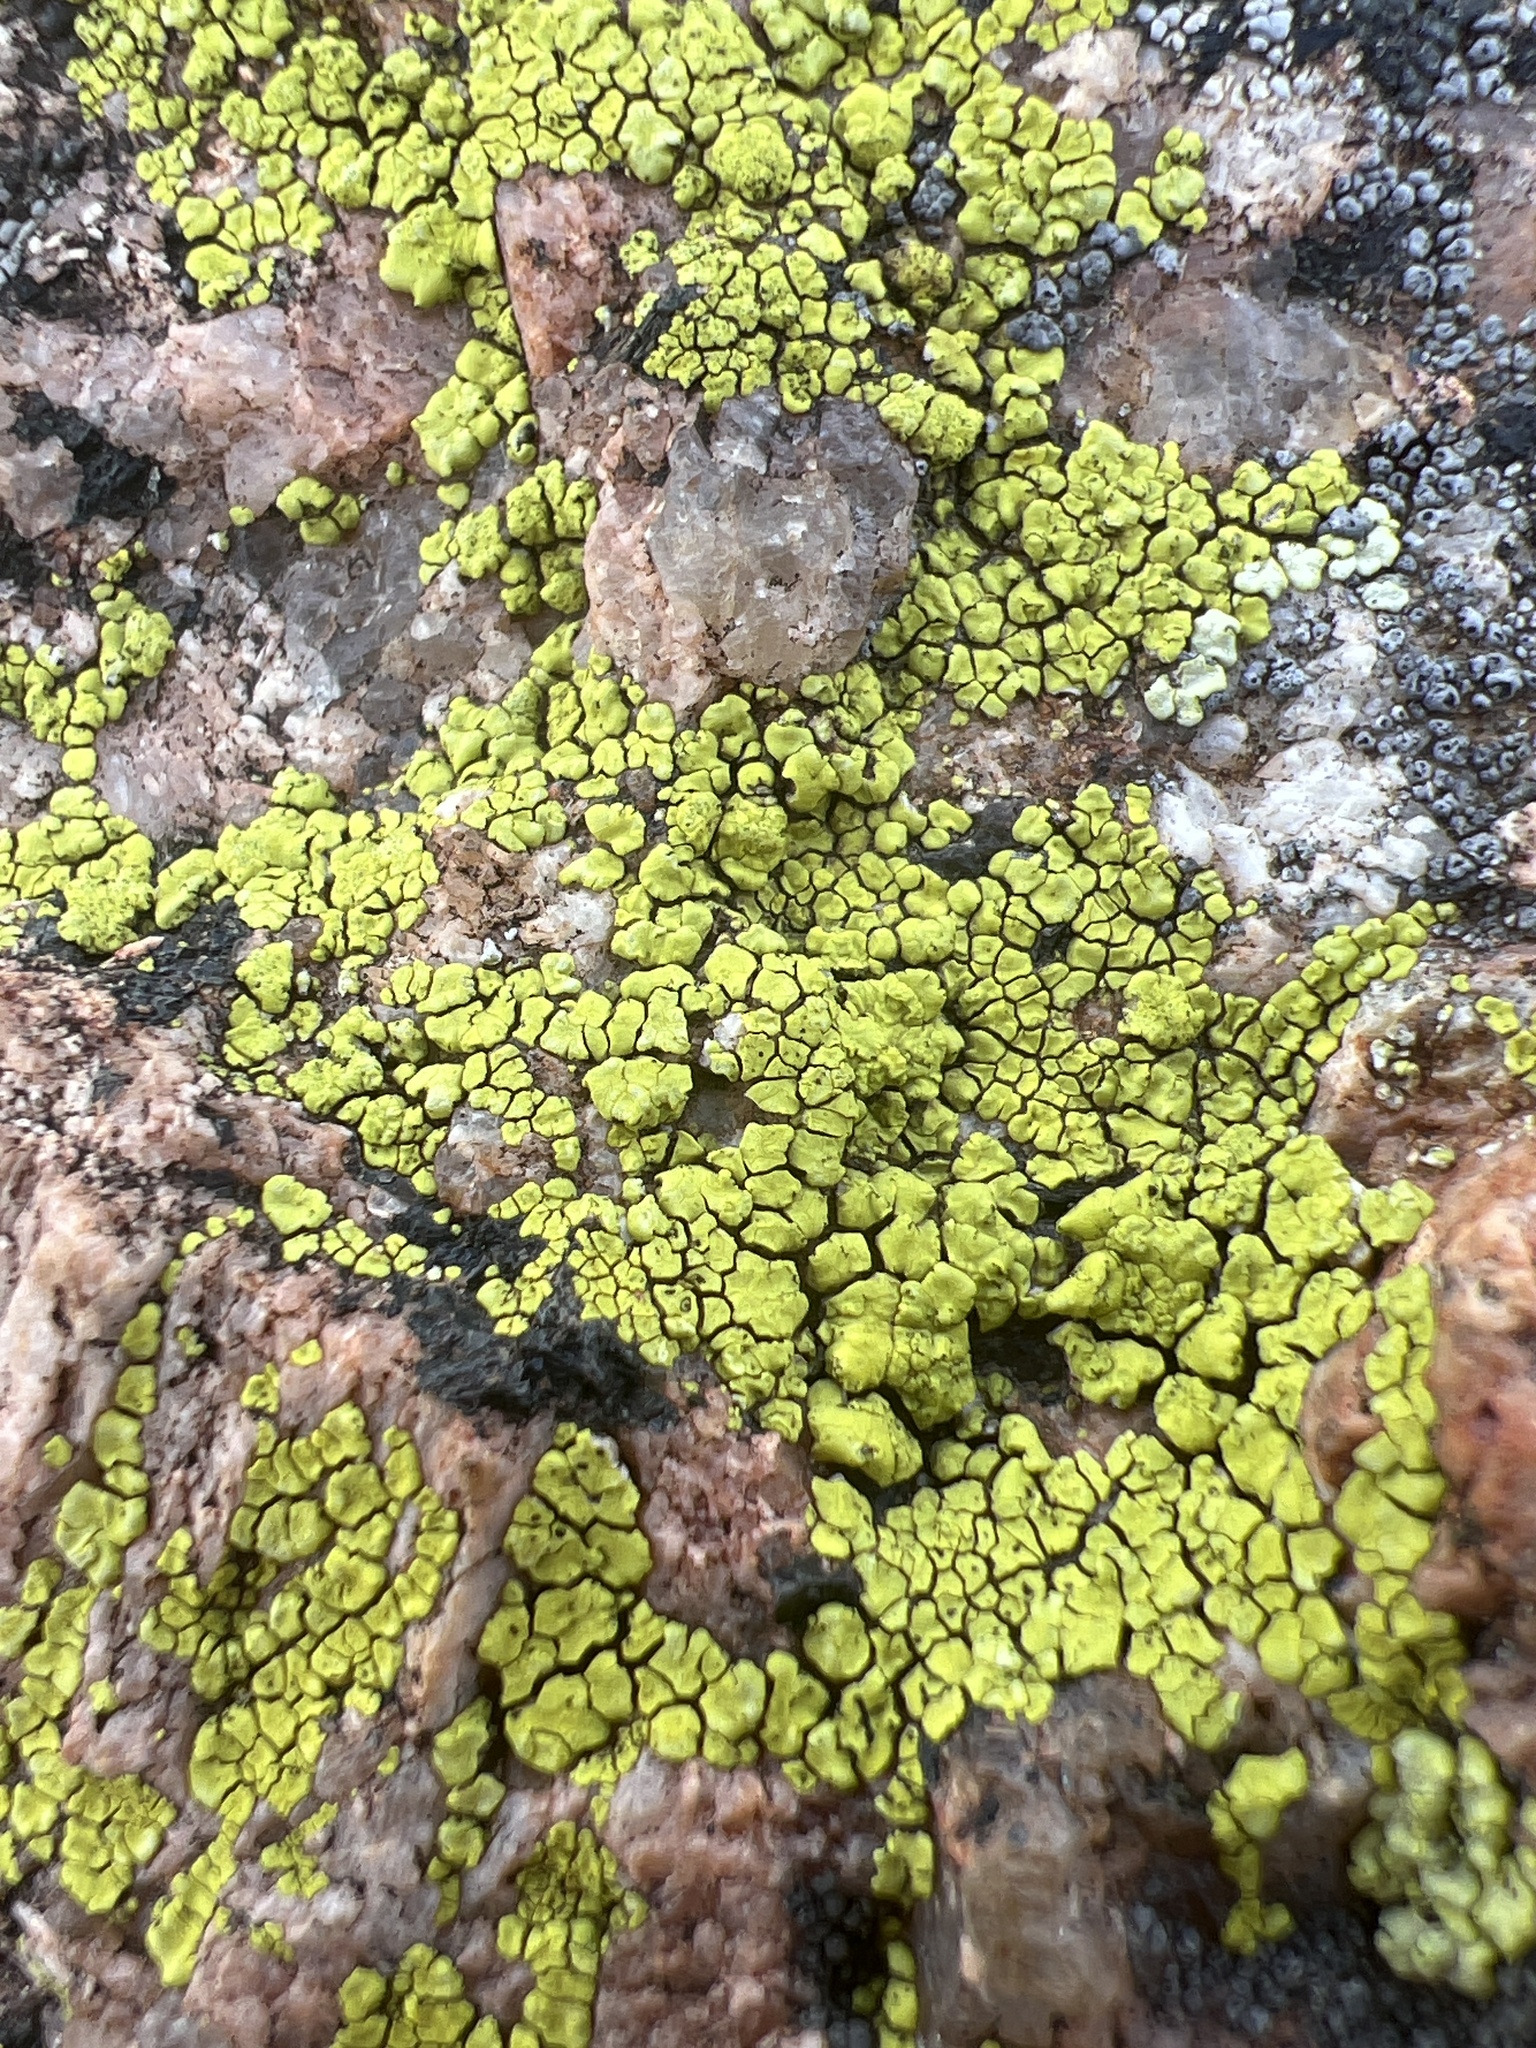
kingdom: Fungi
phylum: Ascomycota
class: Lecanoromycetes
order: Acarosporales
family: Acarosporaceae
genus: Acarospora
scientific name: Acarospora socialis
